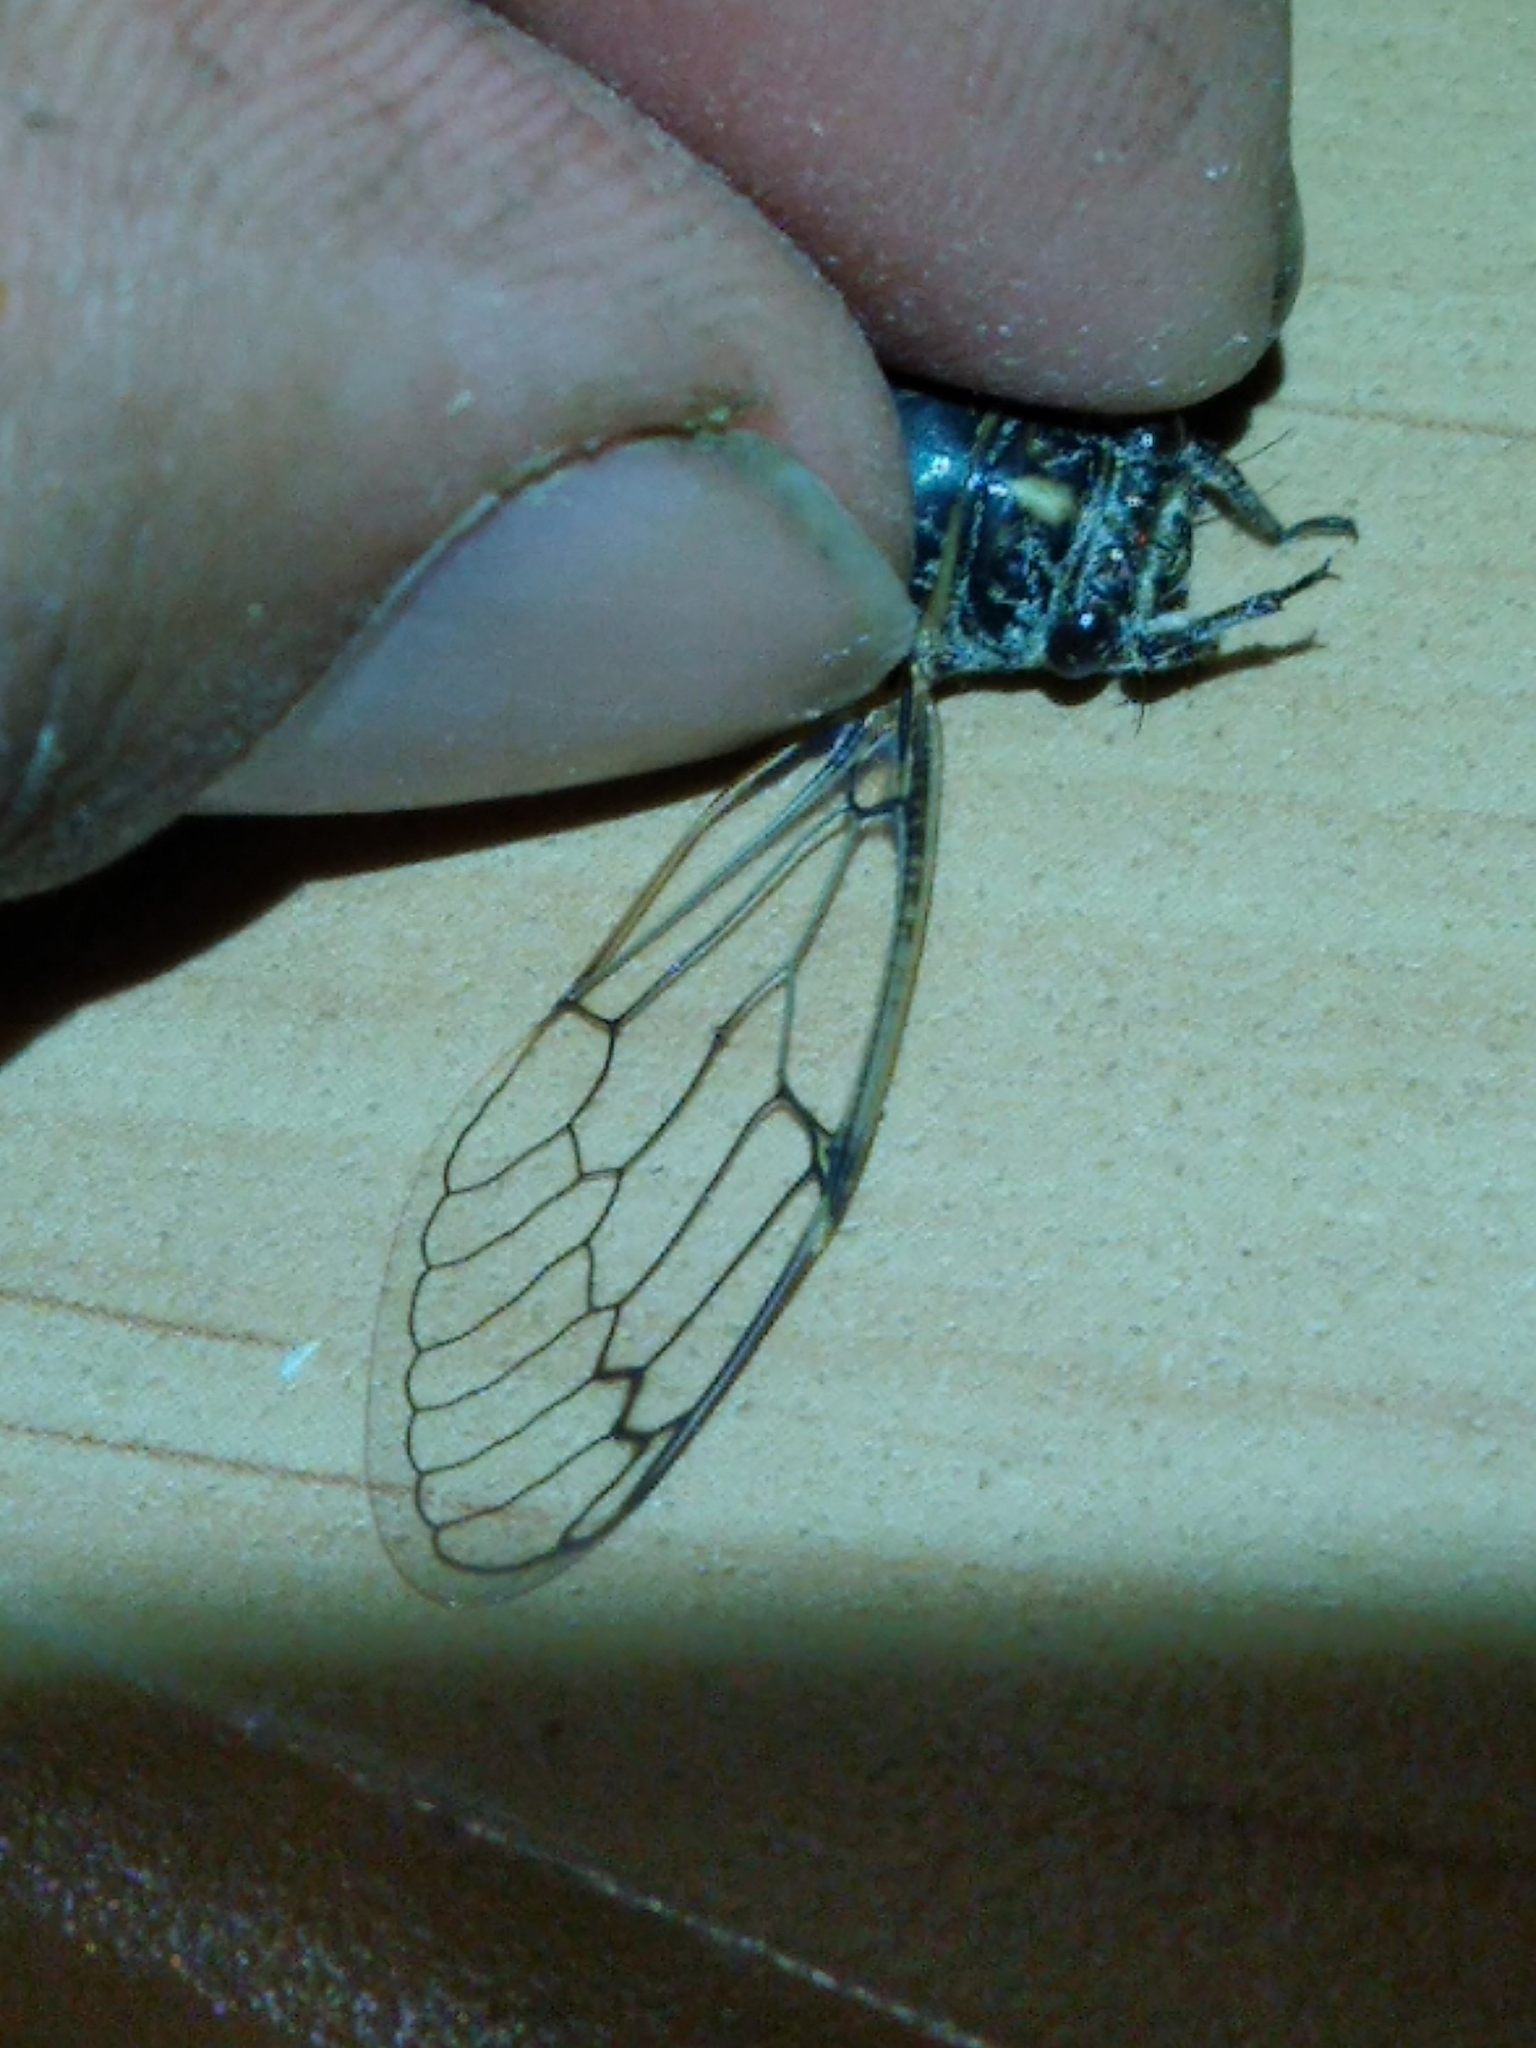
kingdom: Animalia
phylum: Arthropoda
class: Insecta
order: Hemiptera
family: Cicadidae
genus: Cicadatra
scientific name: Cicadatra atra
